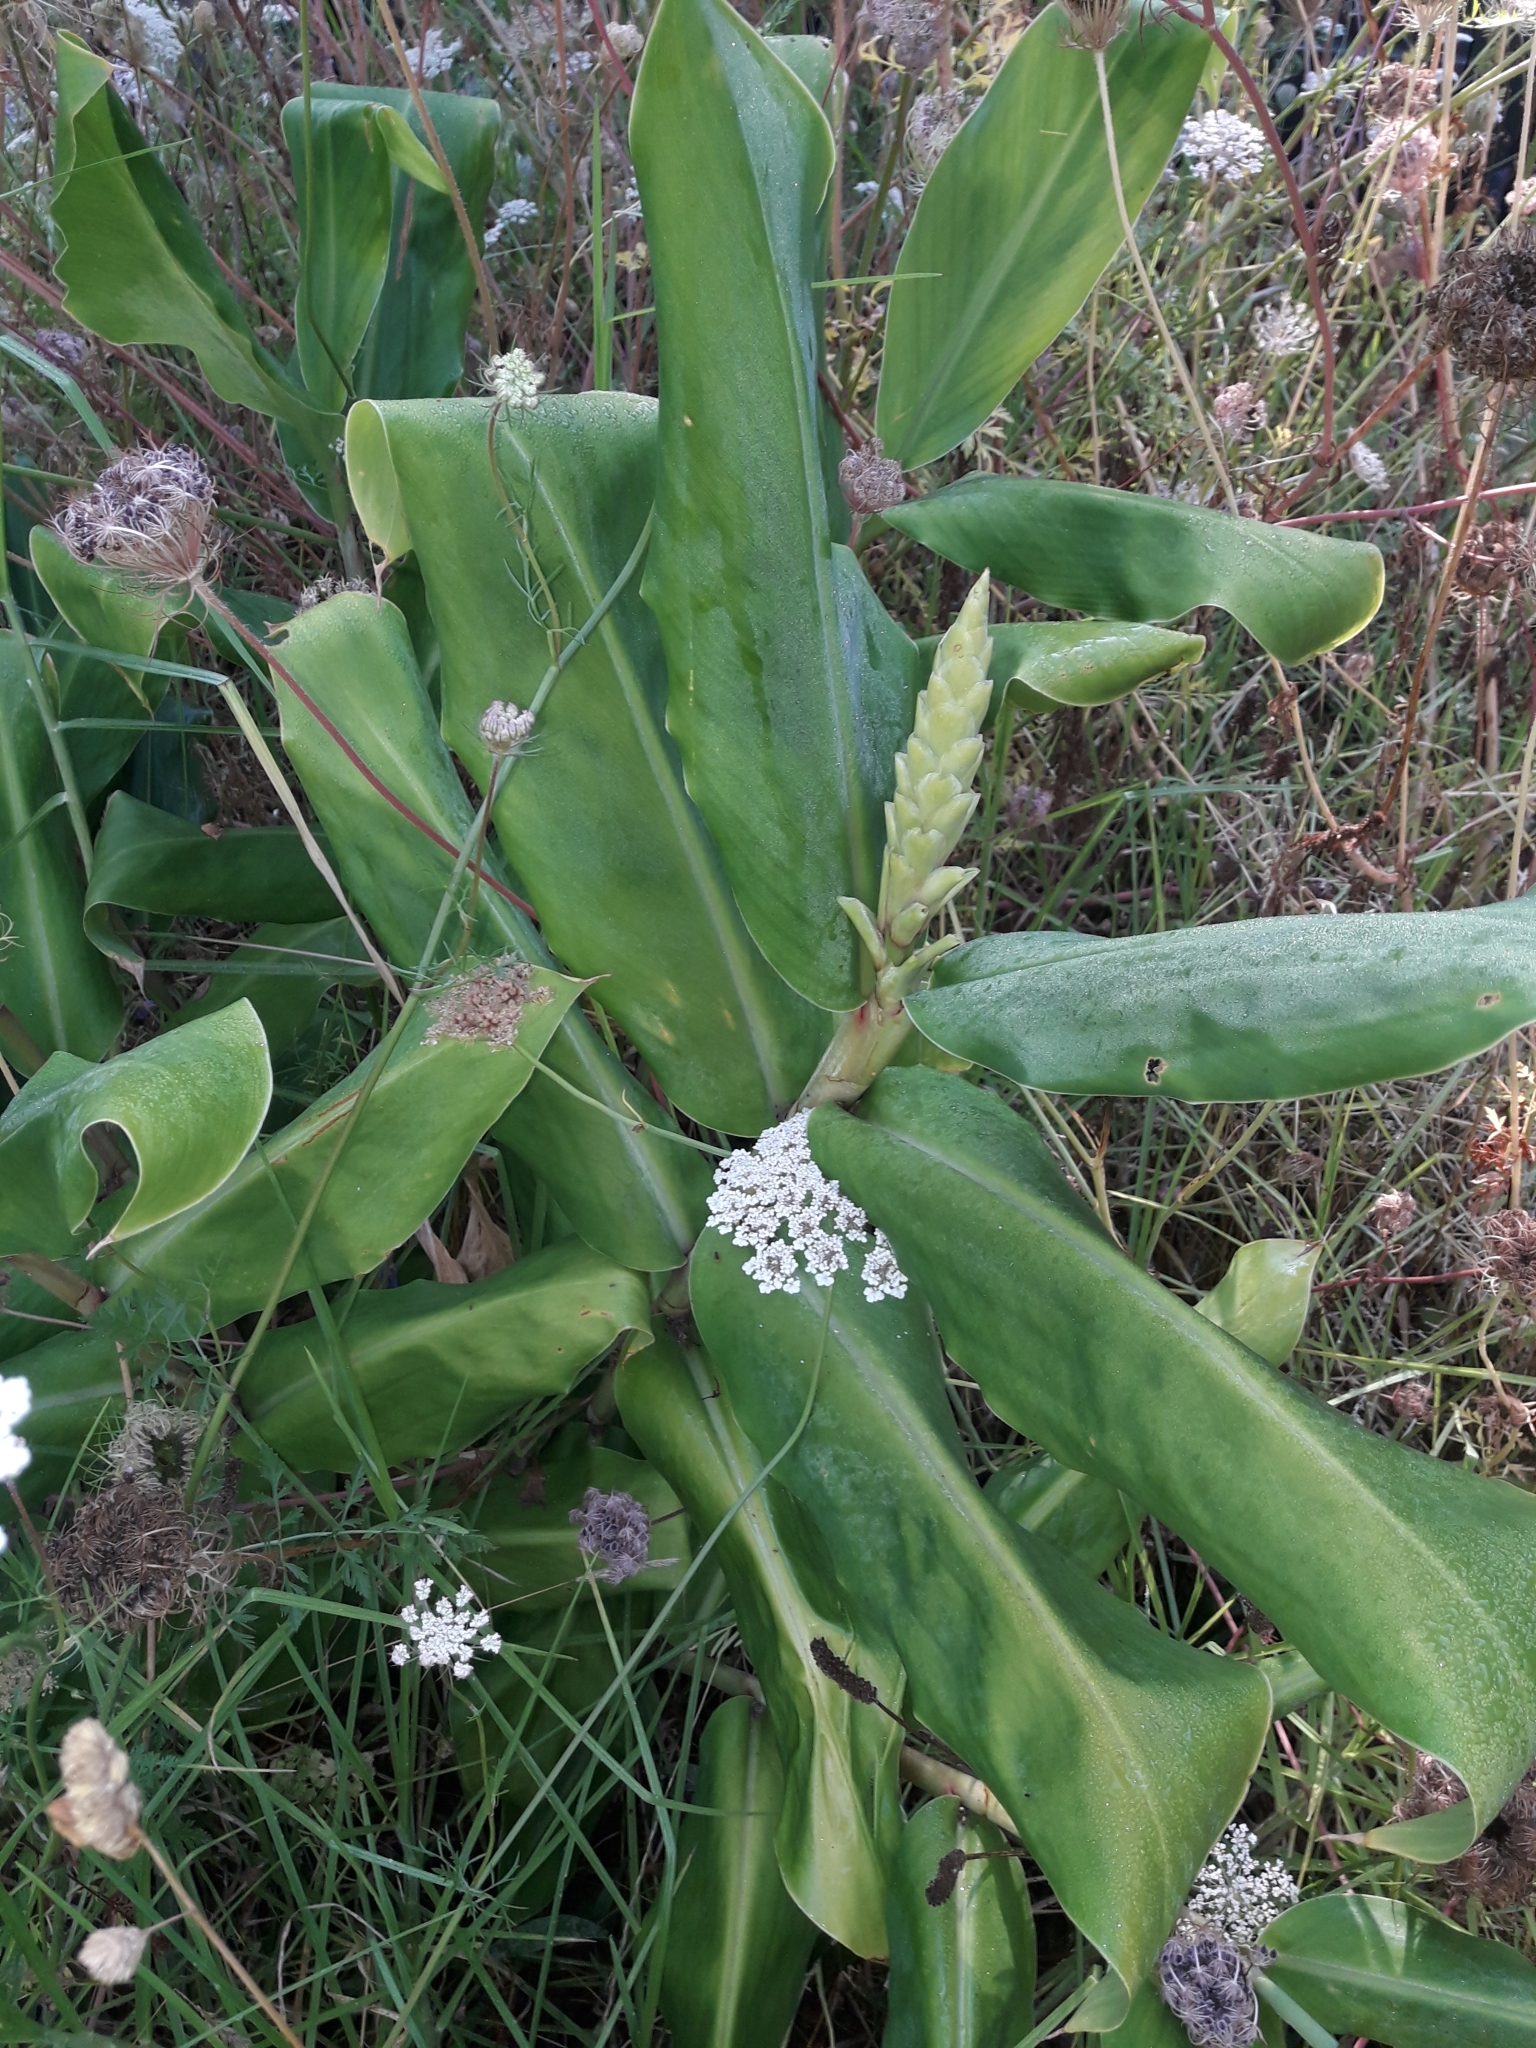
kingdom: Plantae
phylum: Tracheophyta
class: Liliopsida
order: Zingiberales
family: Zingiberaceae
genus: Hedychium
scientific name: Hedychium gardnerianum
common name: Himalayan ginger
